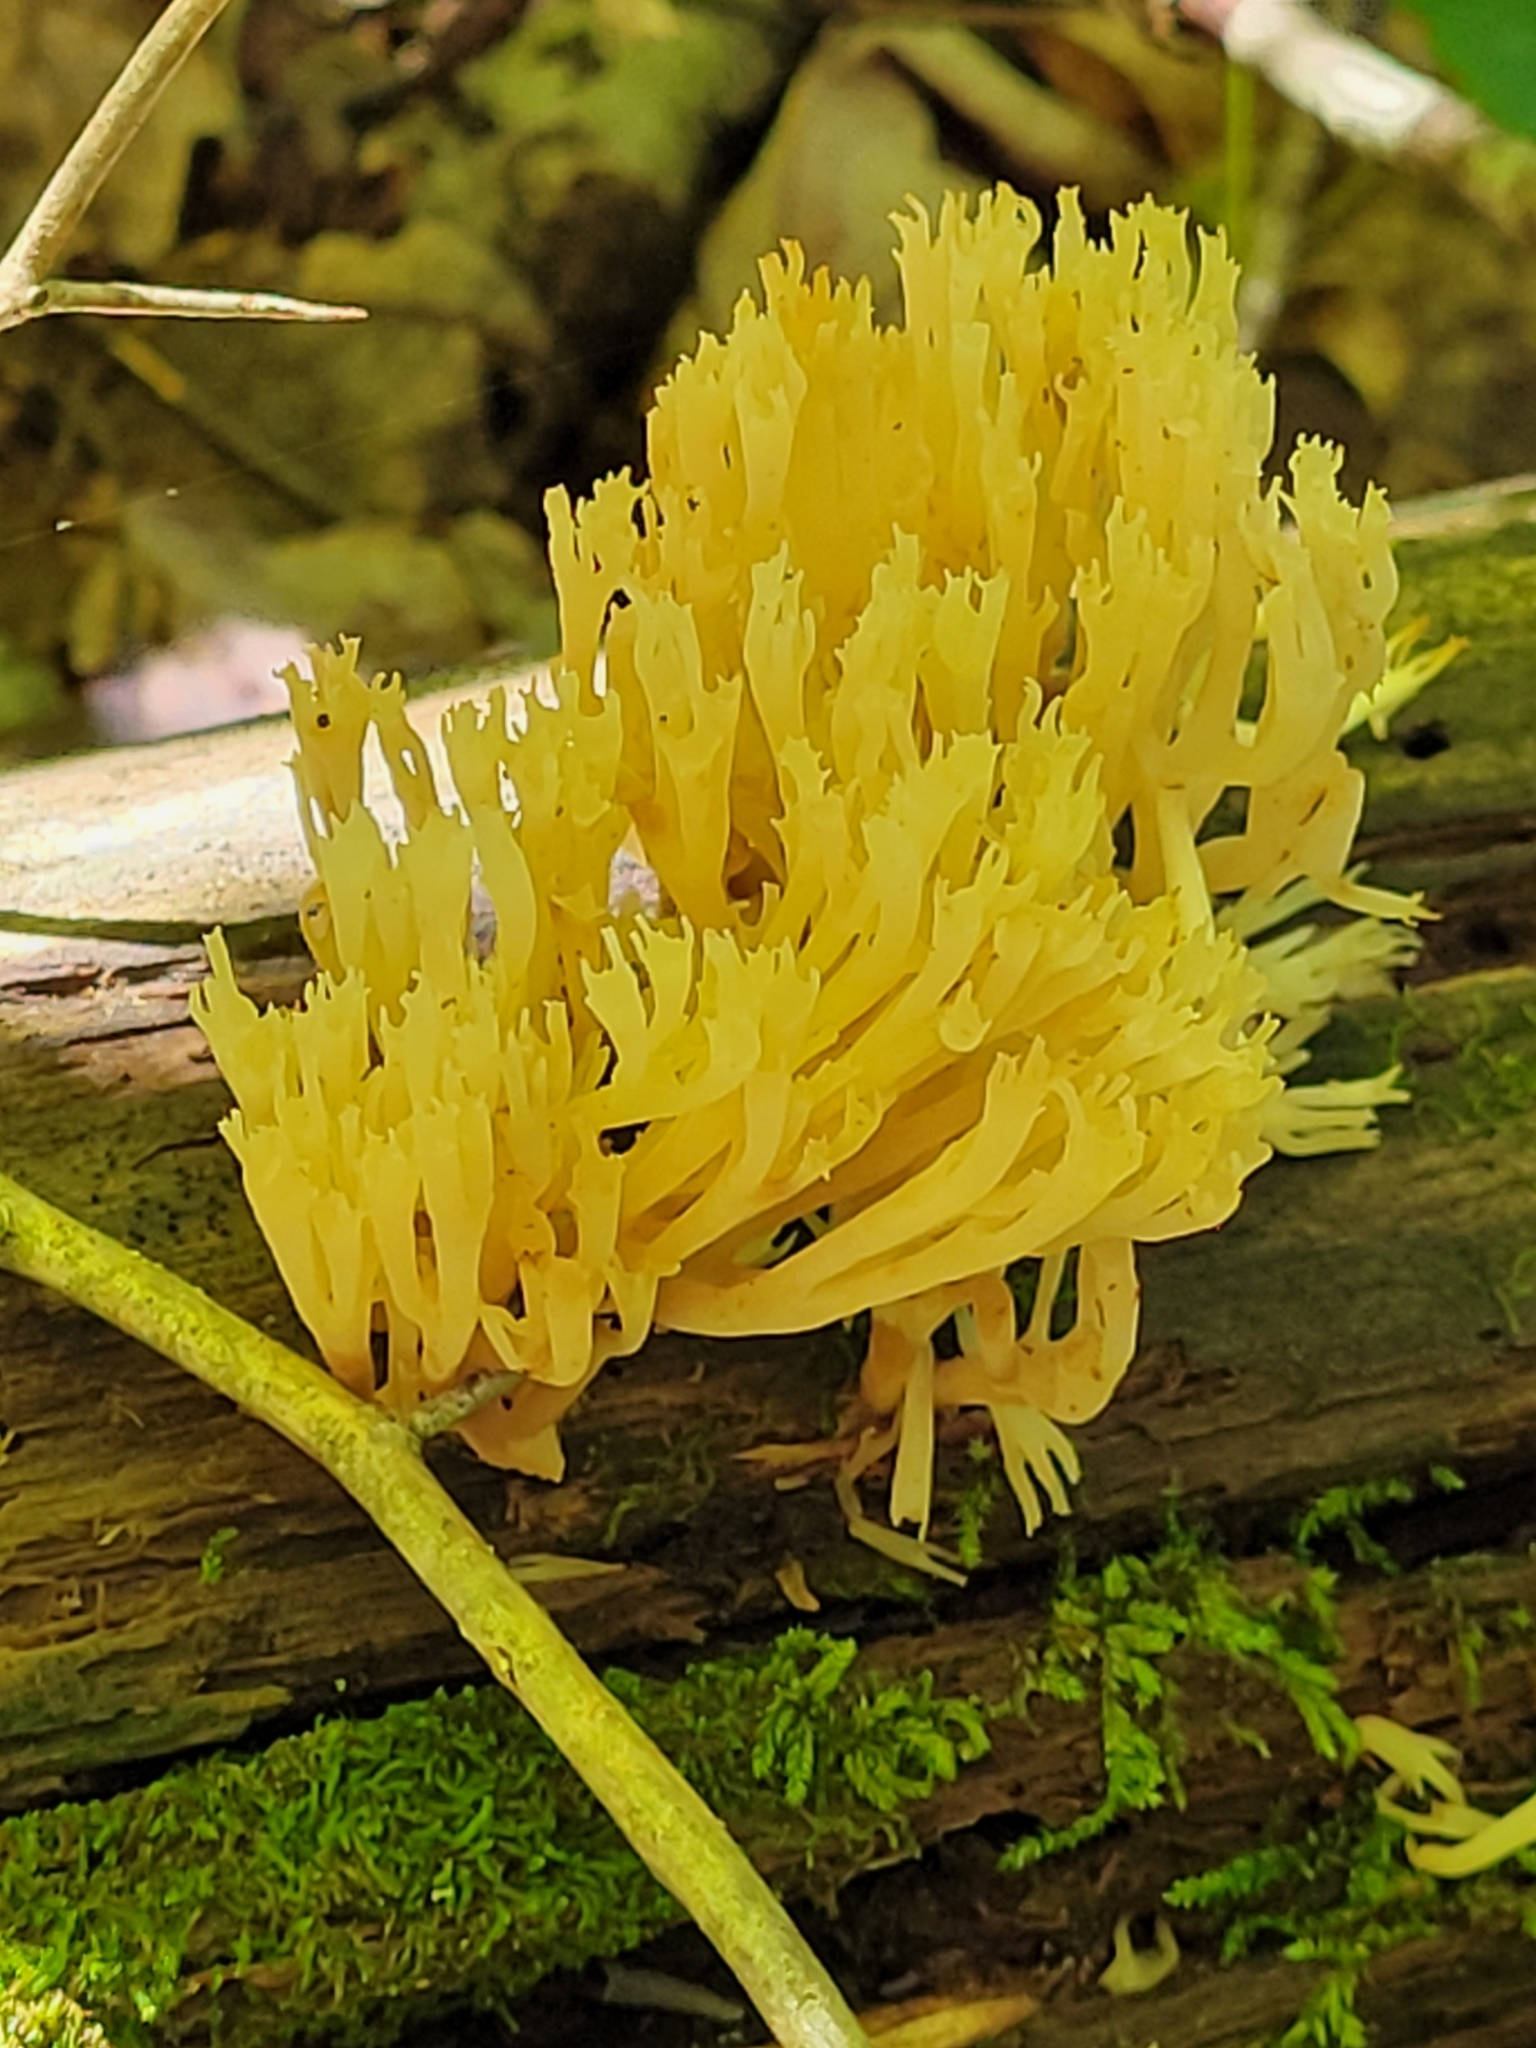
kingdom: Fungi
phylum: Basidiomycota
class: Agaricomycetes
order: Russulales
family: Auriscalpiaceae
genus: Artomyces
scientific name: Artomyces pyxidatus
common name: Crown-tipped coral fungus
